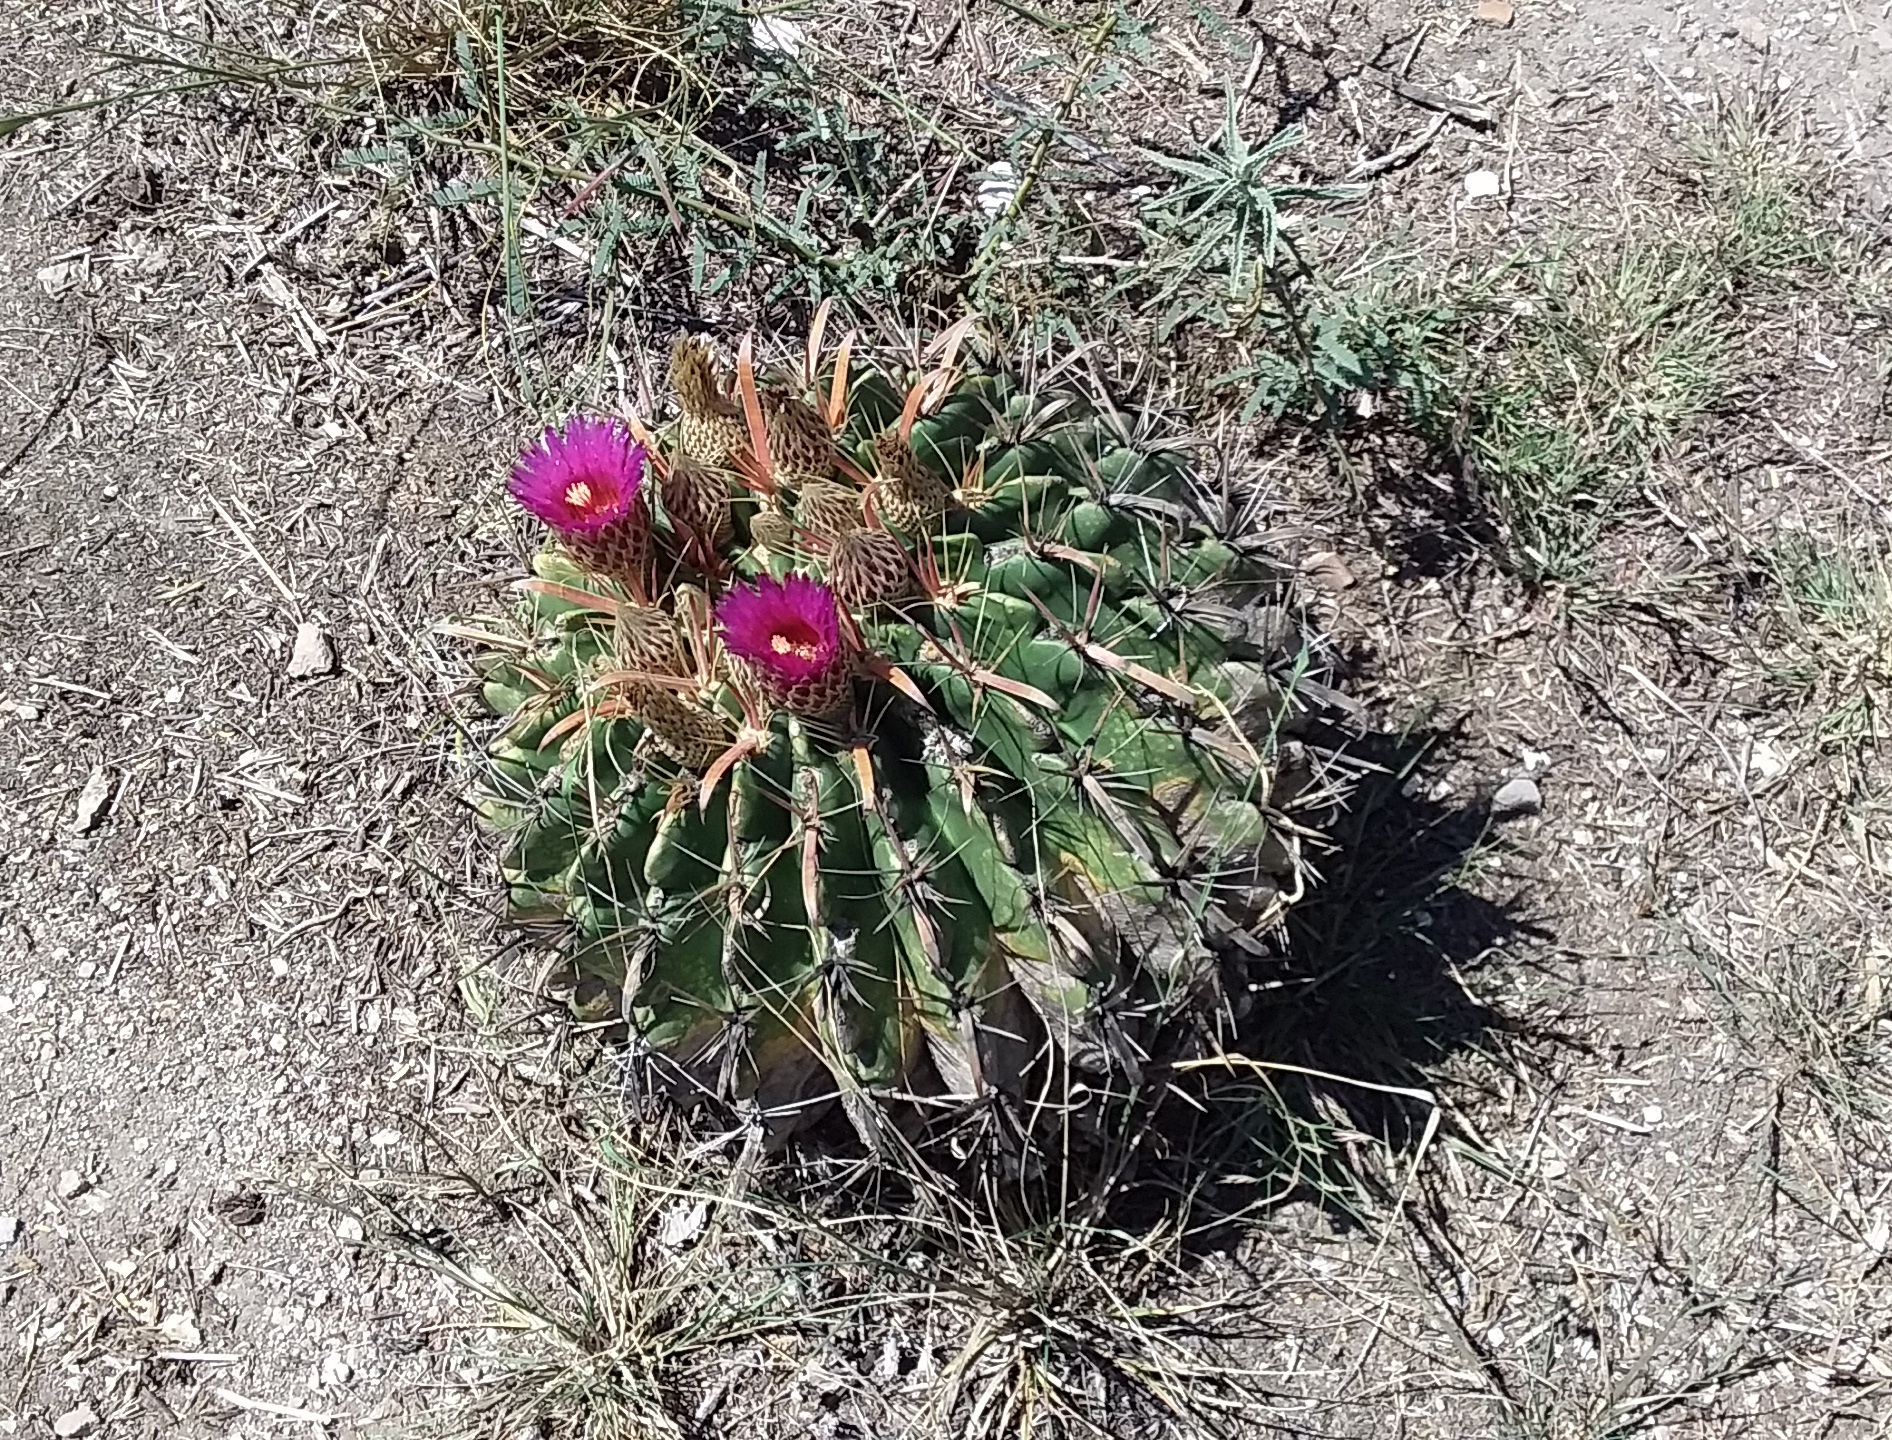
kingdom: Plantae
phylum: Tracheophyta
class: Magnoliopsida
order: Caryophyllales
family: Cactaceae
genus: Ferocactus
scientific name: Ferocactus latispinus
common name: Devil's-tongue cactus
